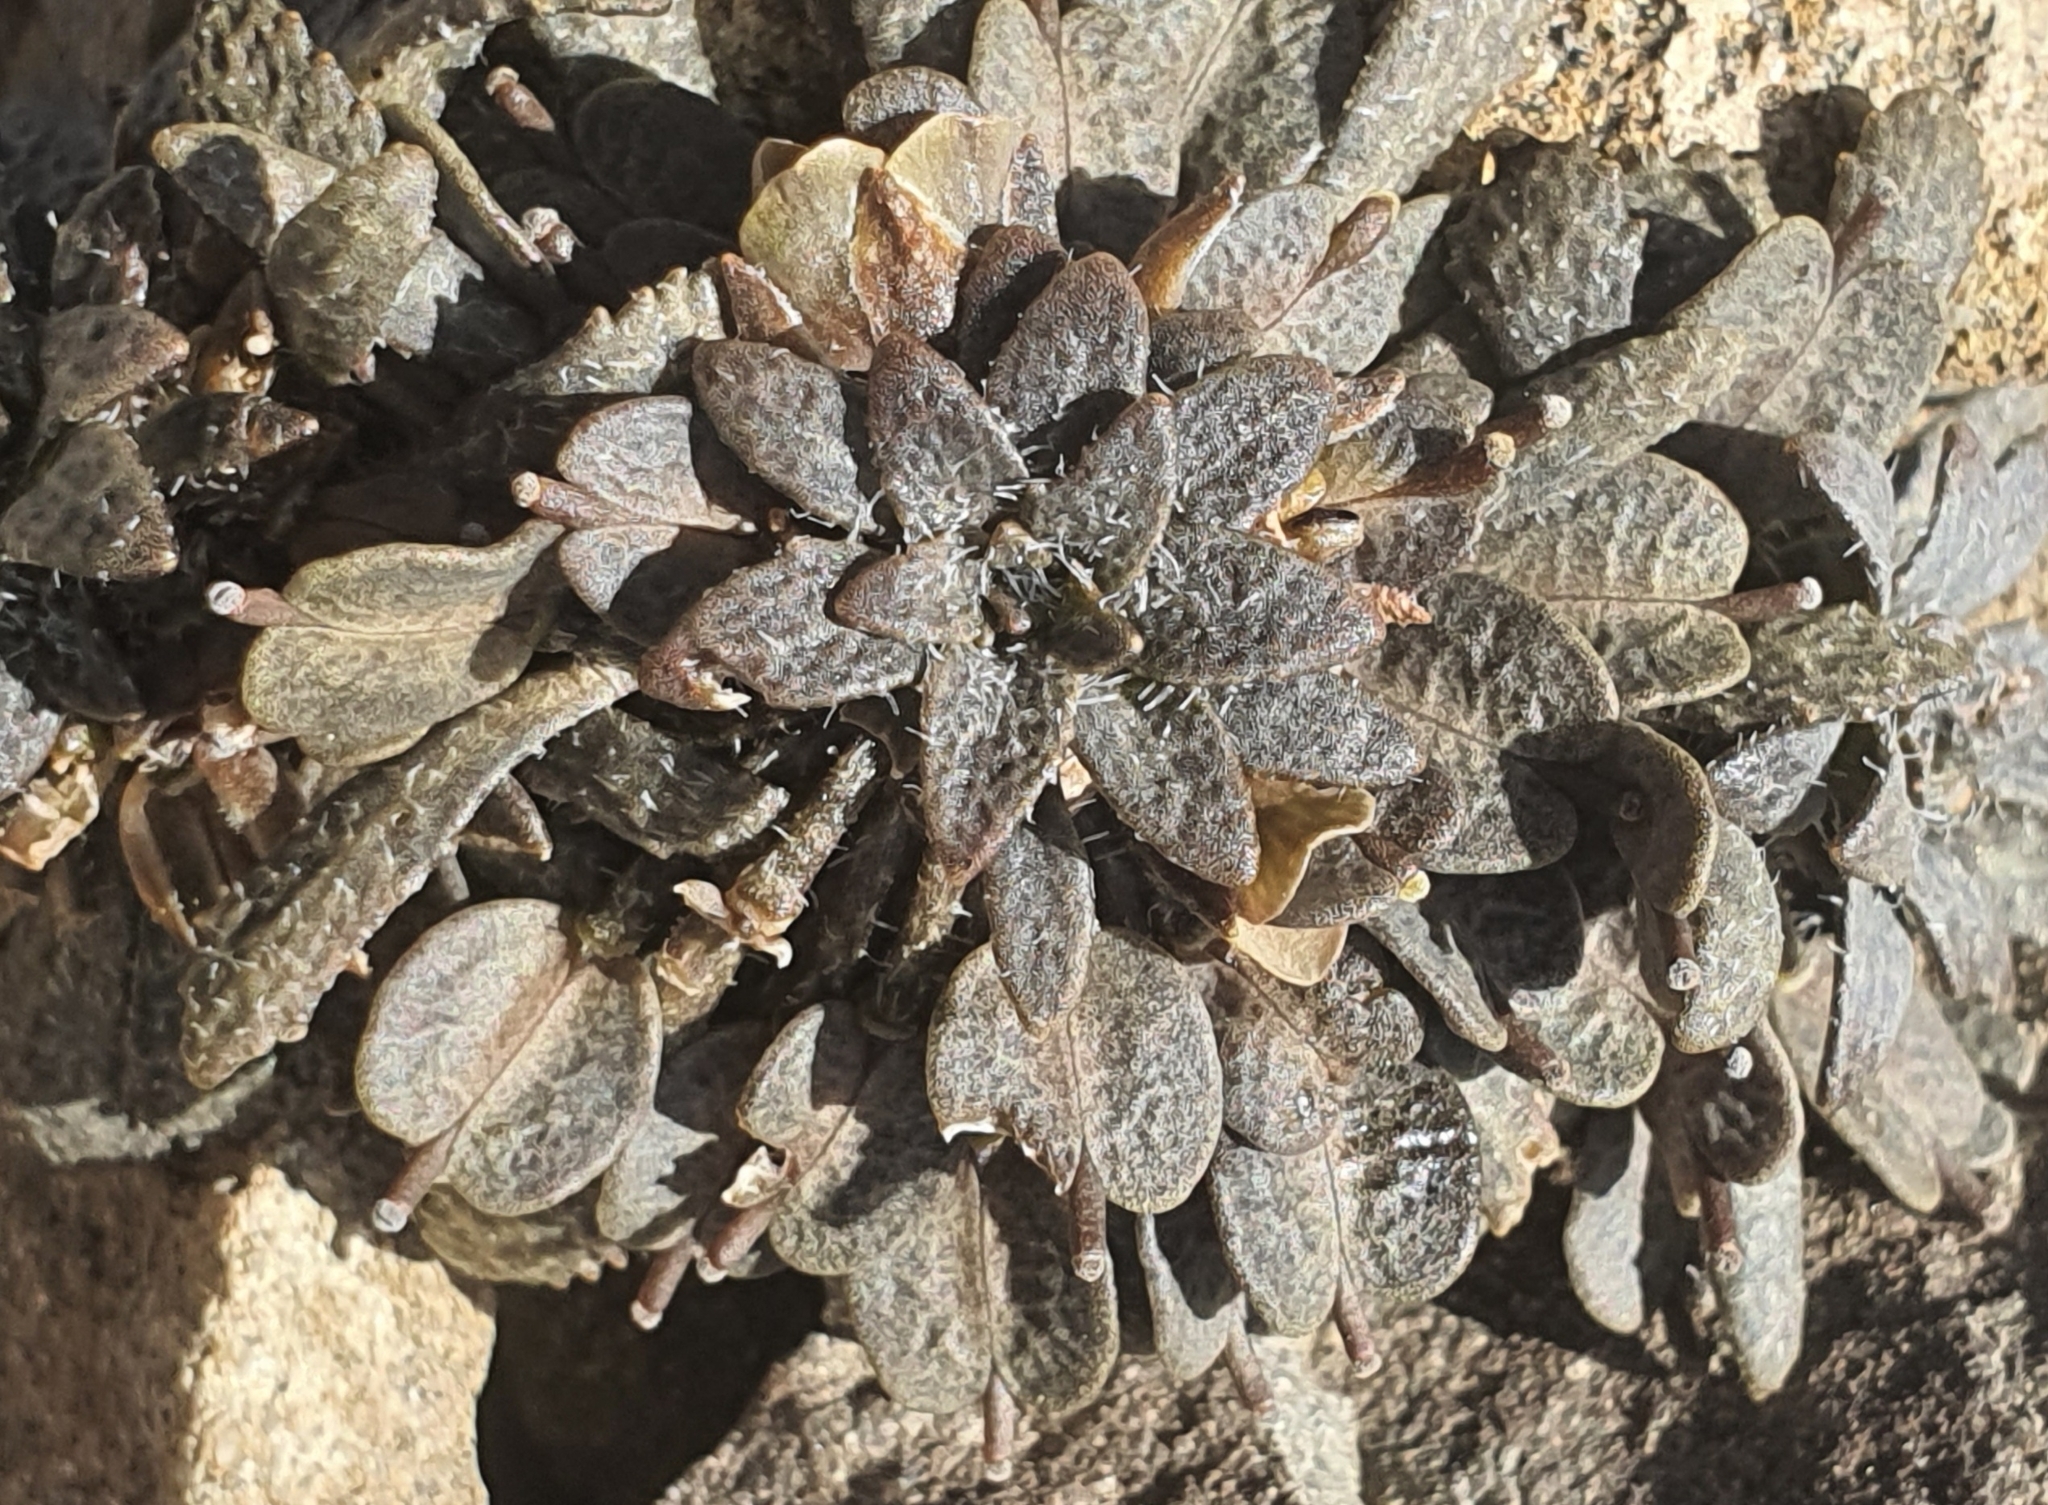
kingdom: Plantae
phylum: Tracheophyta
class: Magnoliopsida
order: Brassicales
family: Brassicaceae
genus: Notothlaspi
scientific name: Notothlaspi australe
